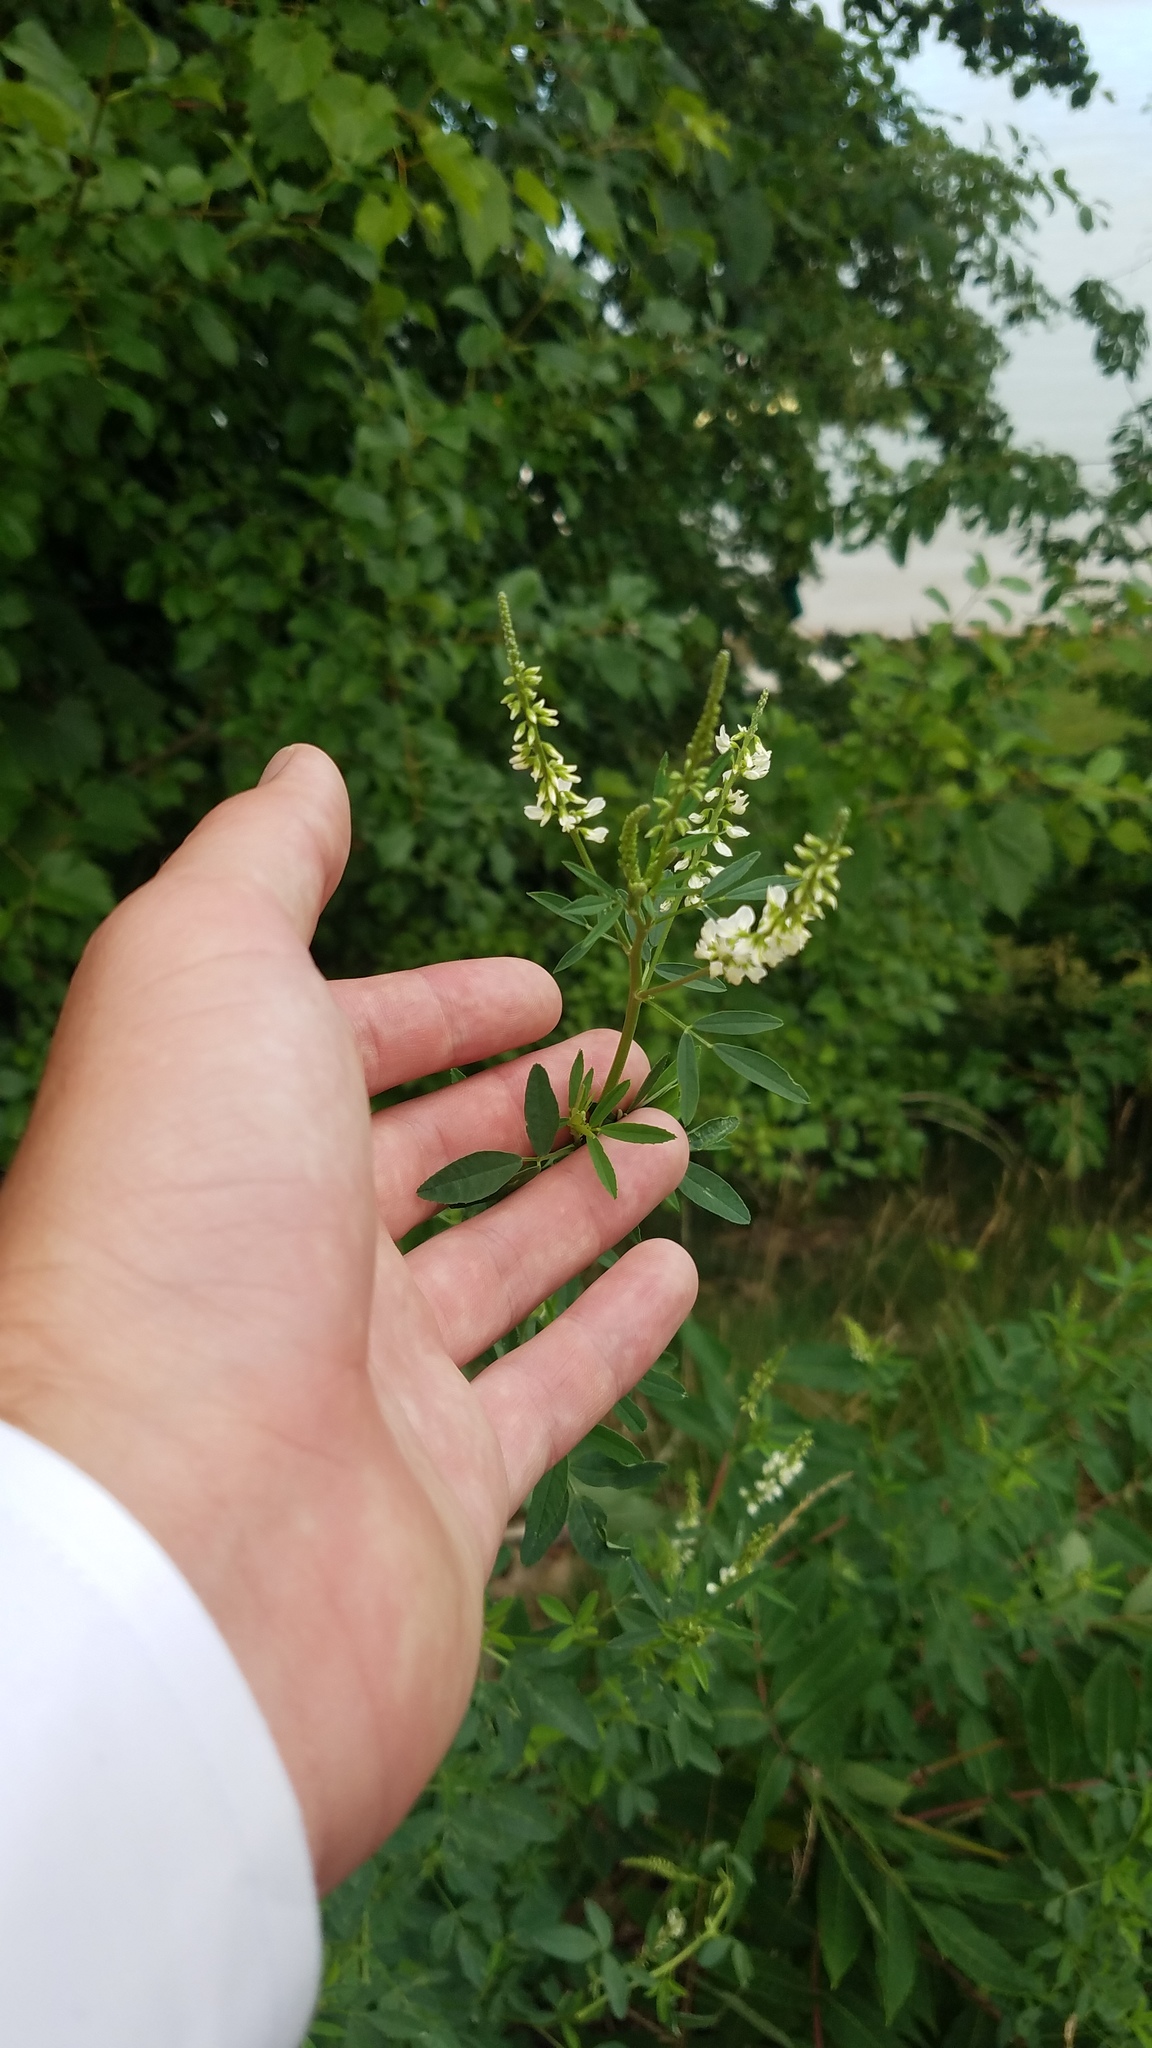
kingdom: Plantae
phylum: Tracheophyta
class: Magnoliopsida
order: Fabales
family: Fabaceae
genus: Melilotus
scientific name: Melilotus albus
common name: White melilot
